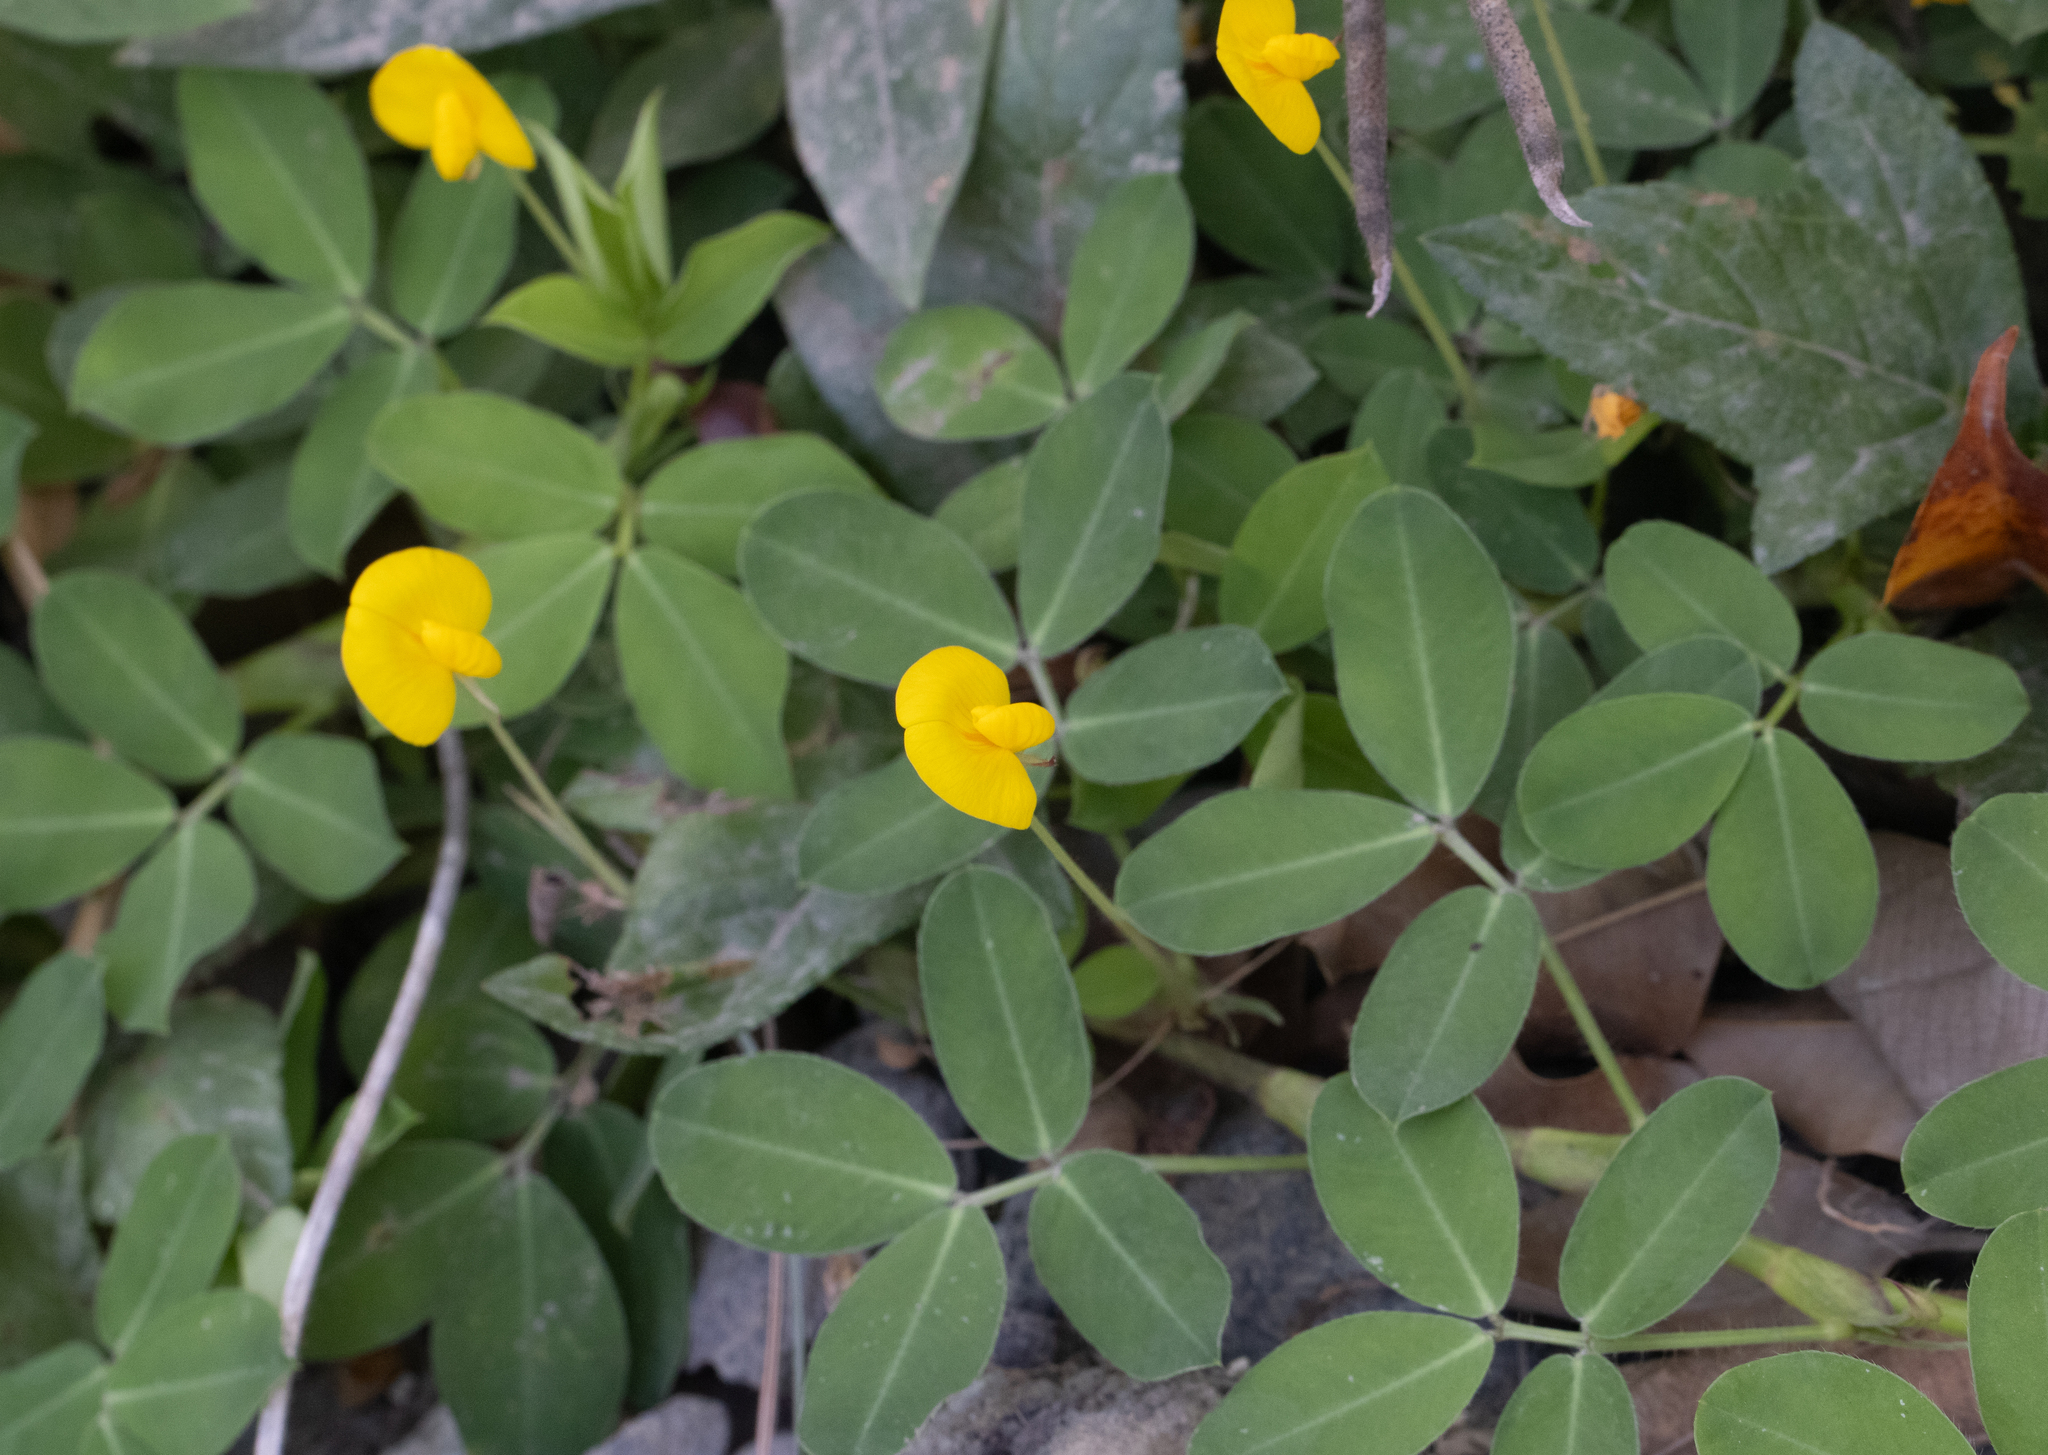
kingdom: Plantae
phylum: Tracheophyta
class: Magnoliopsida
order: Fabales
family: Fabaceae
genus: Arachis
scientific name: Arachis pintoi
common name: Pinto peanut
